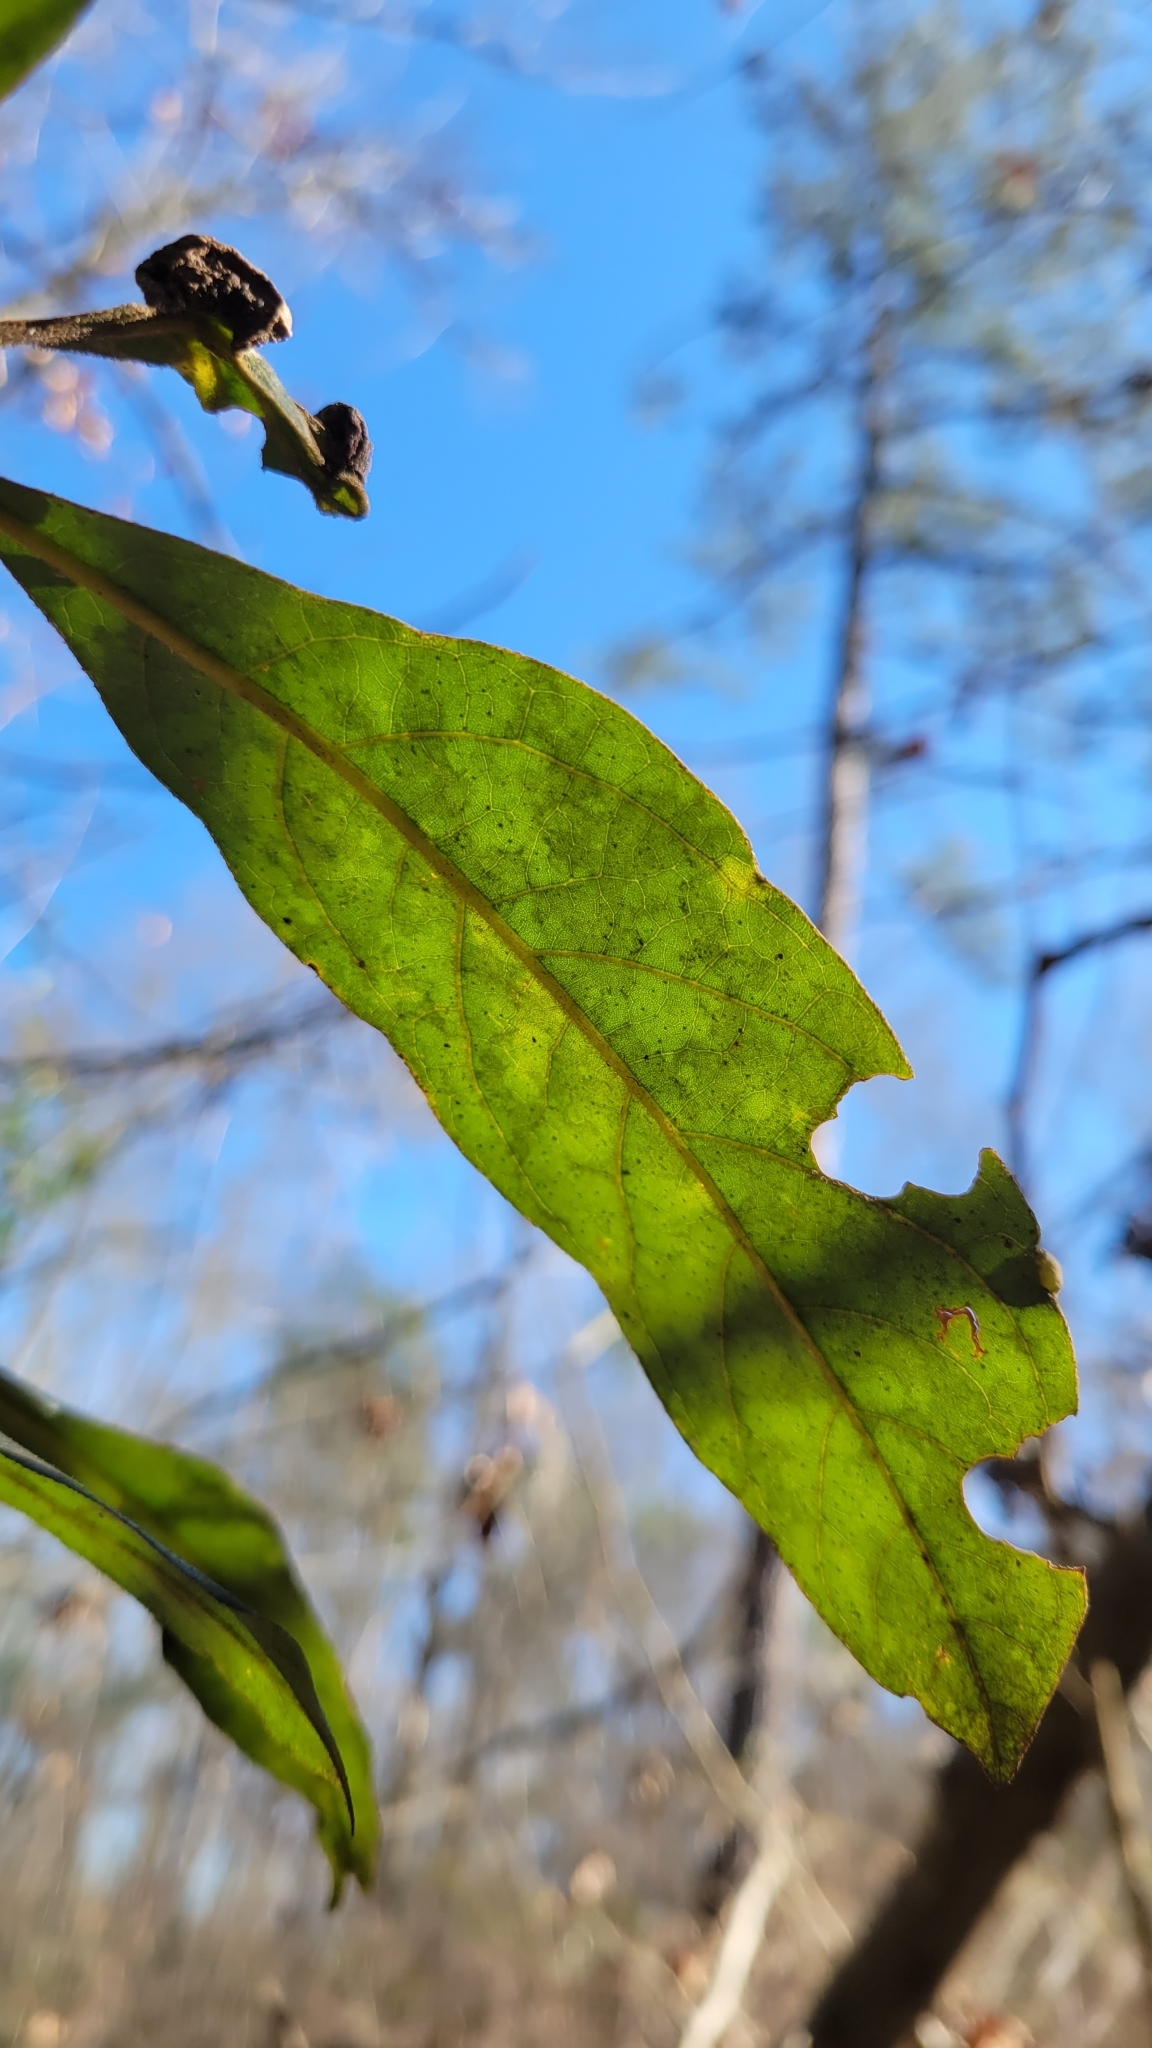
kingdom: Plantae
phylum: Tracheophyta
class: Magnoliopsida
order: Laurales
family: Lauraceae
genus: Persea
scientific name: Persea palustris
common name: Swampbay
